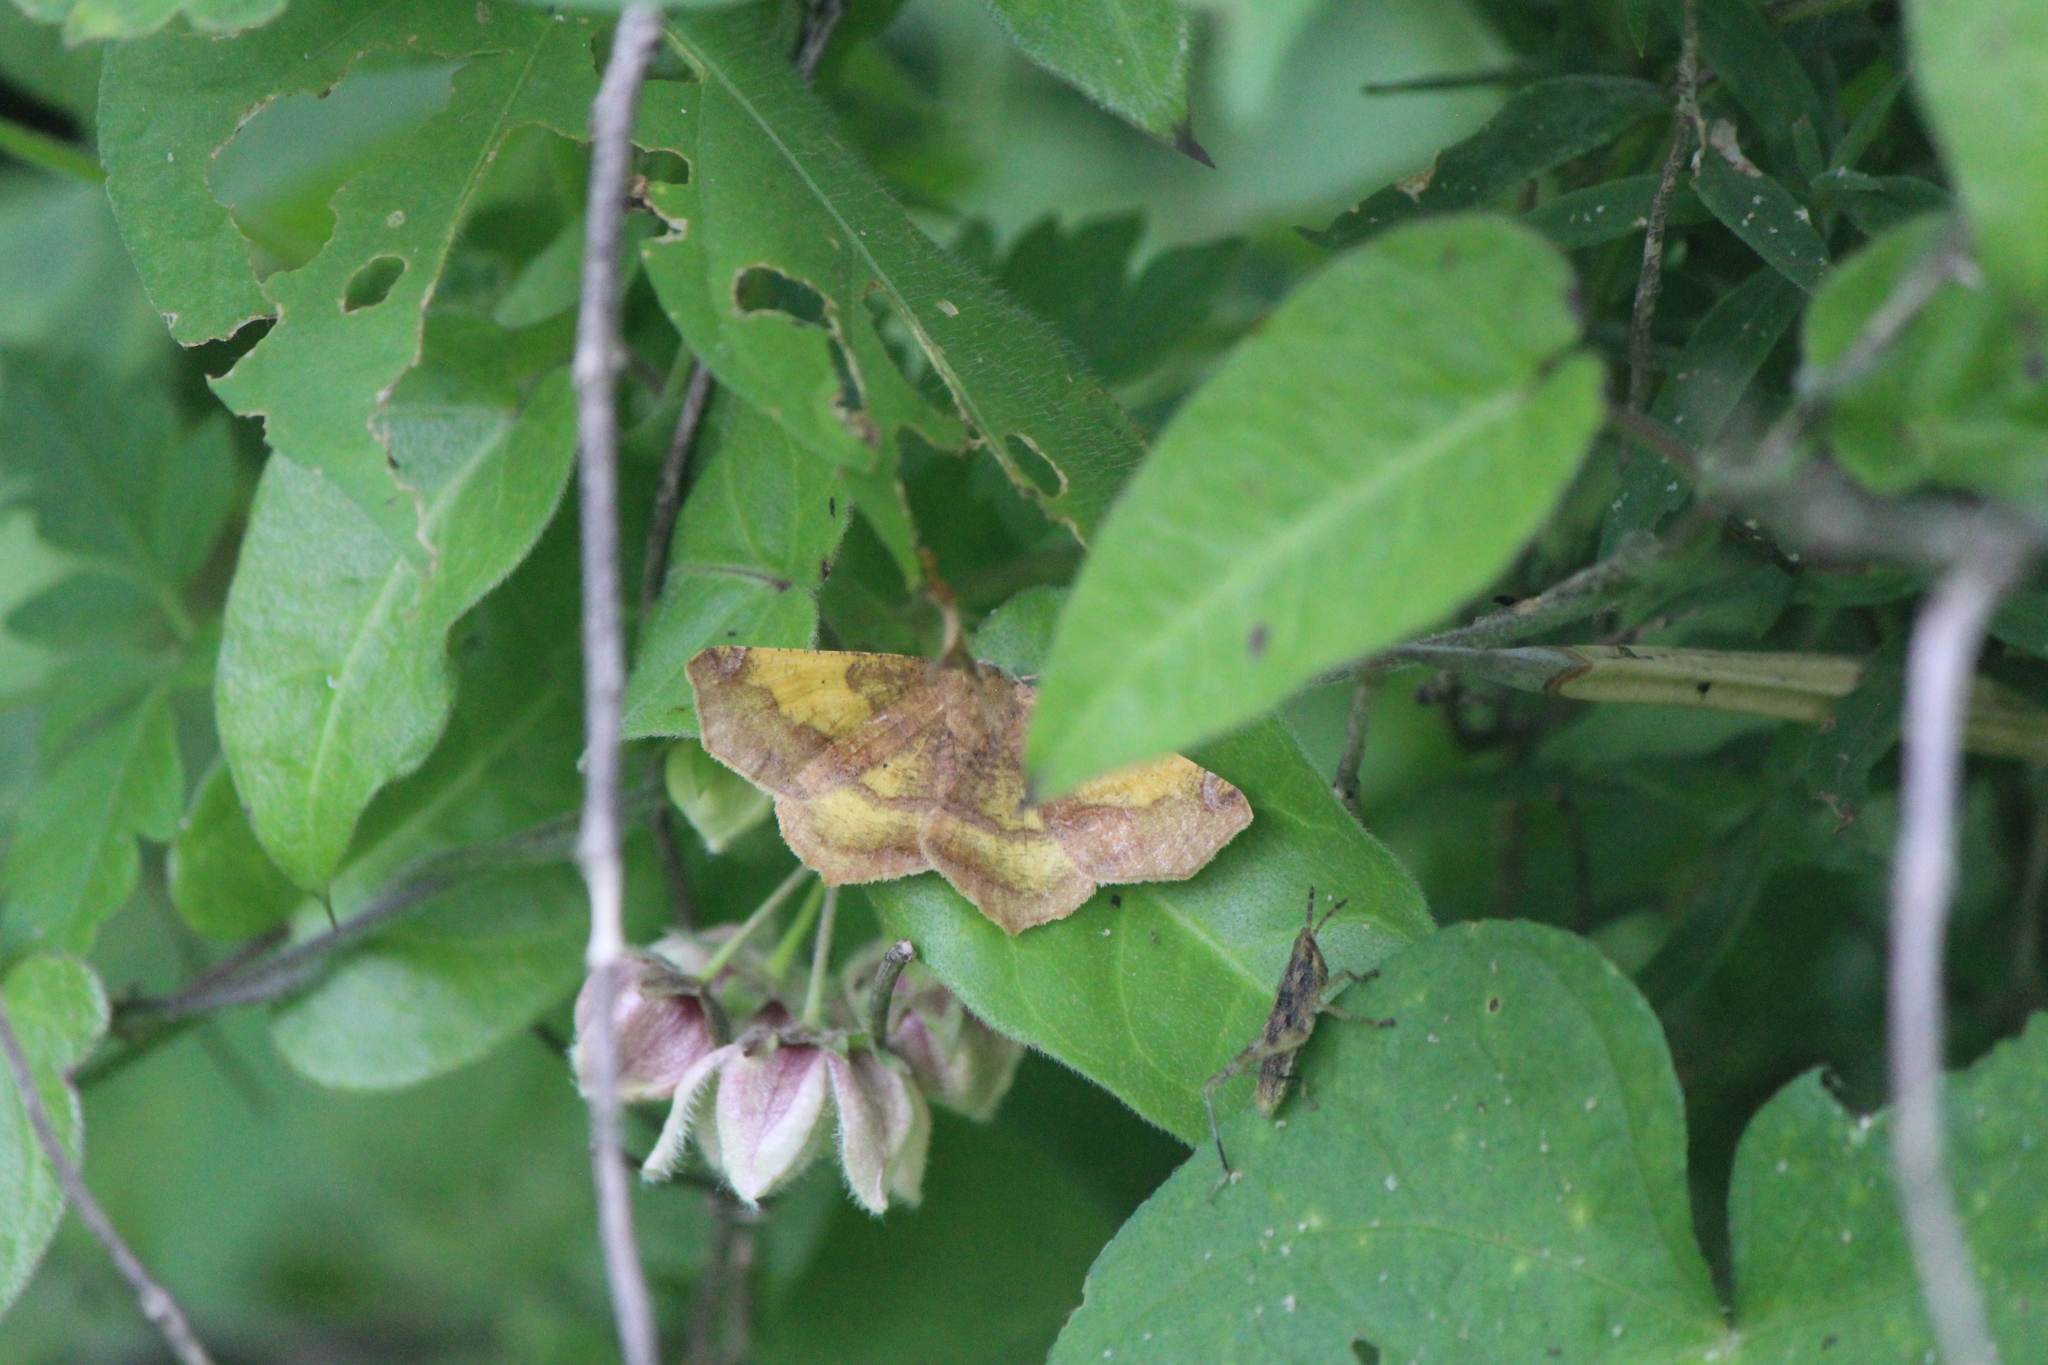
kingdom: Animalia
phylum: Arthropoda
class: Insecta
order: Lepidoptera
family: Geometridae
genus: Antepione
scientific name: Antepione thisoaria
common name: Variable antipione
